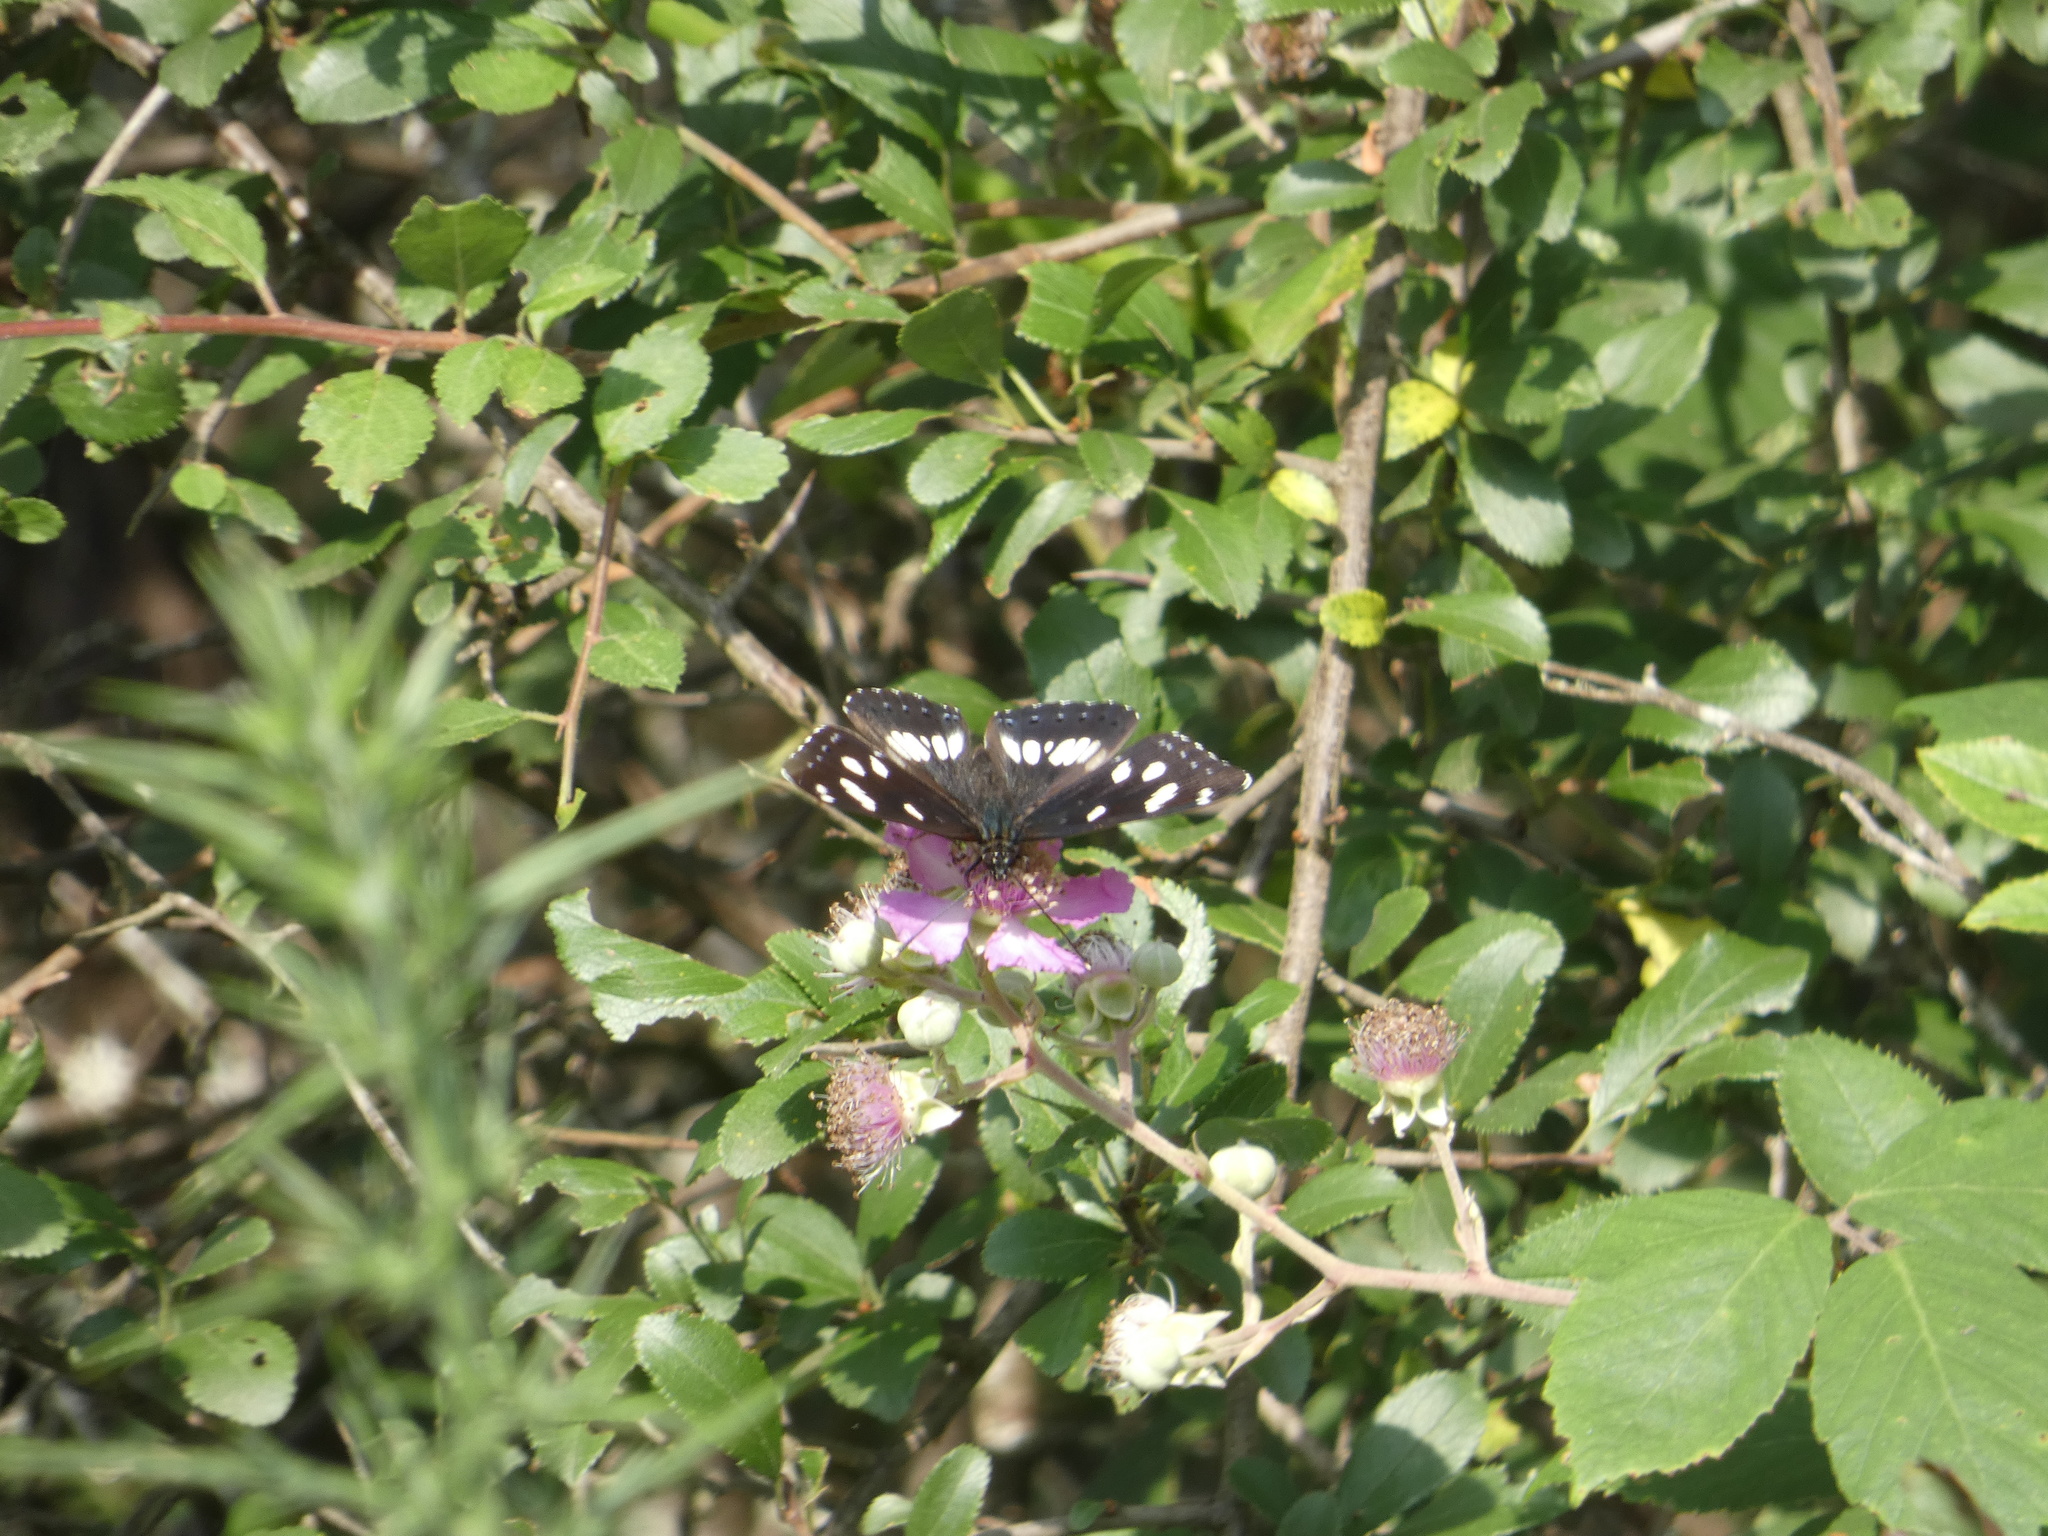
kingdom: Animalia
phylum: Arthropoda
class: Insecta
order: Lepidoptera
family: Nymphalidae
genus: Limenitis
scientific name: Limenitis reducta
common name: Southern white admiral
